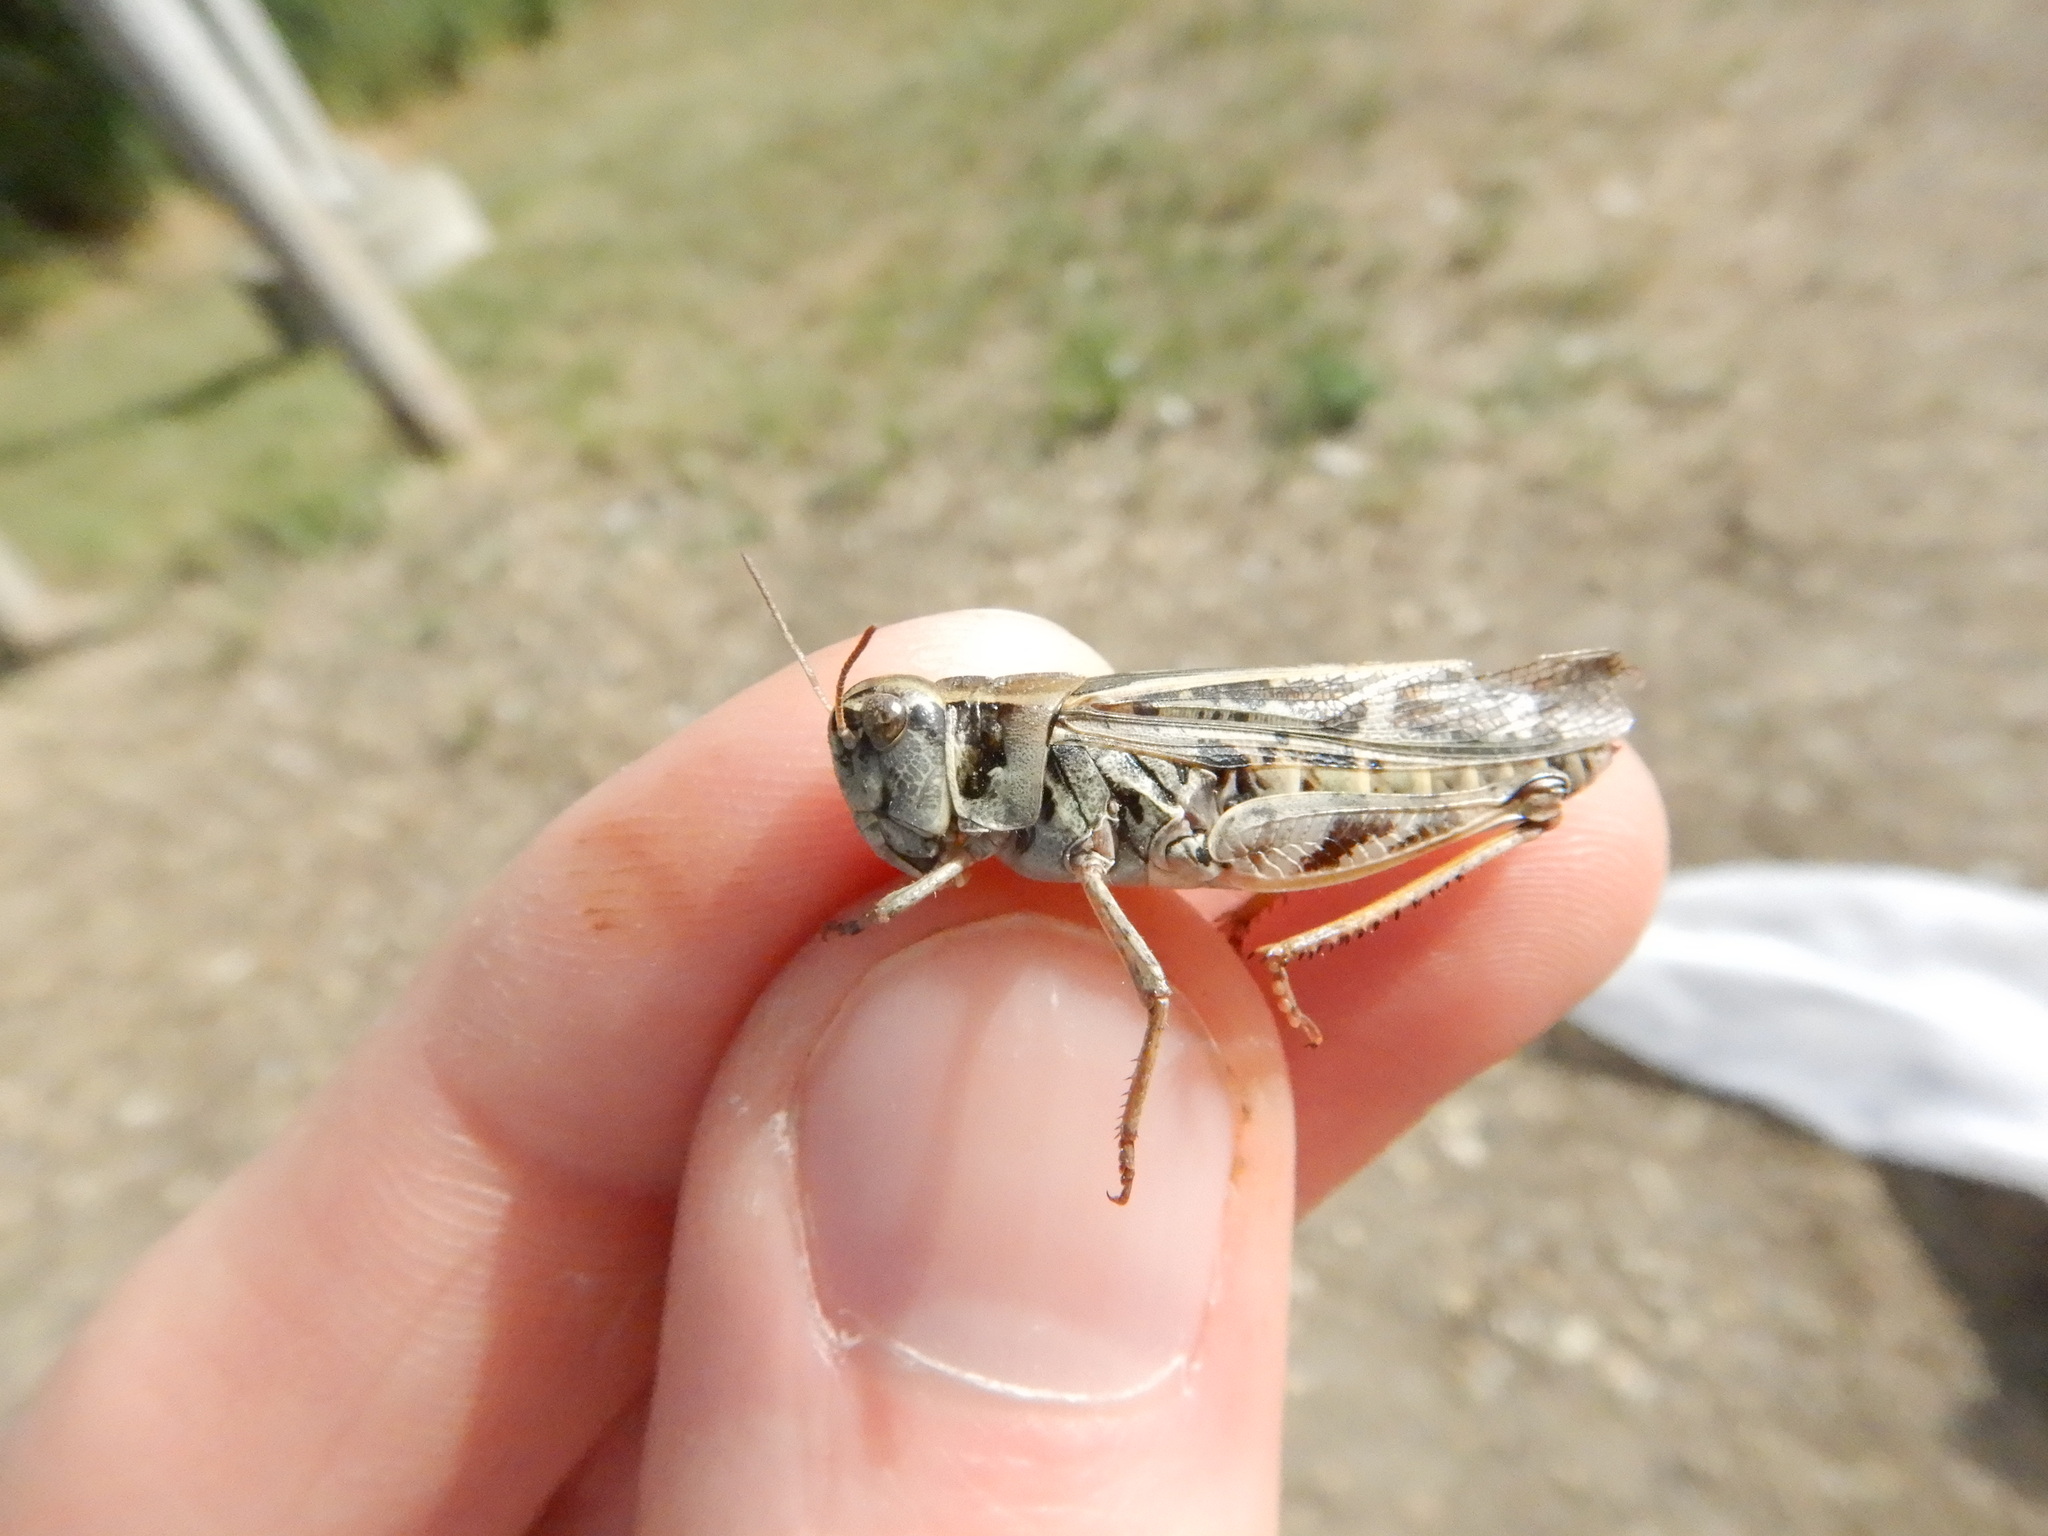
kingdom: Animalia
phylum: Arthropoda
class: Insecta
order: Orthoptera
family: Acrididae
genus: Camnula
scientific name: Camnula pellucida
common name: Clear-winged grasshopper
